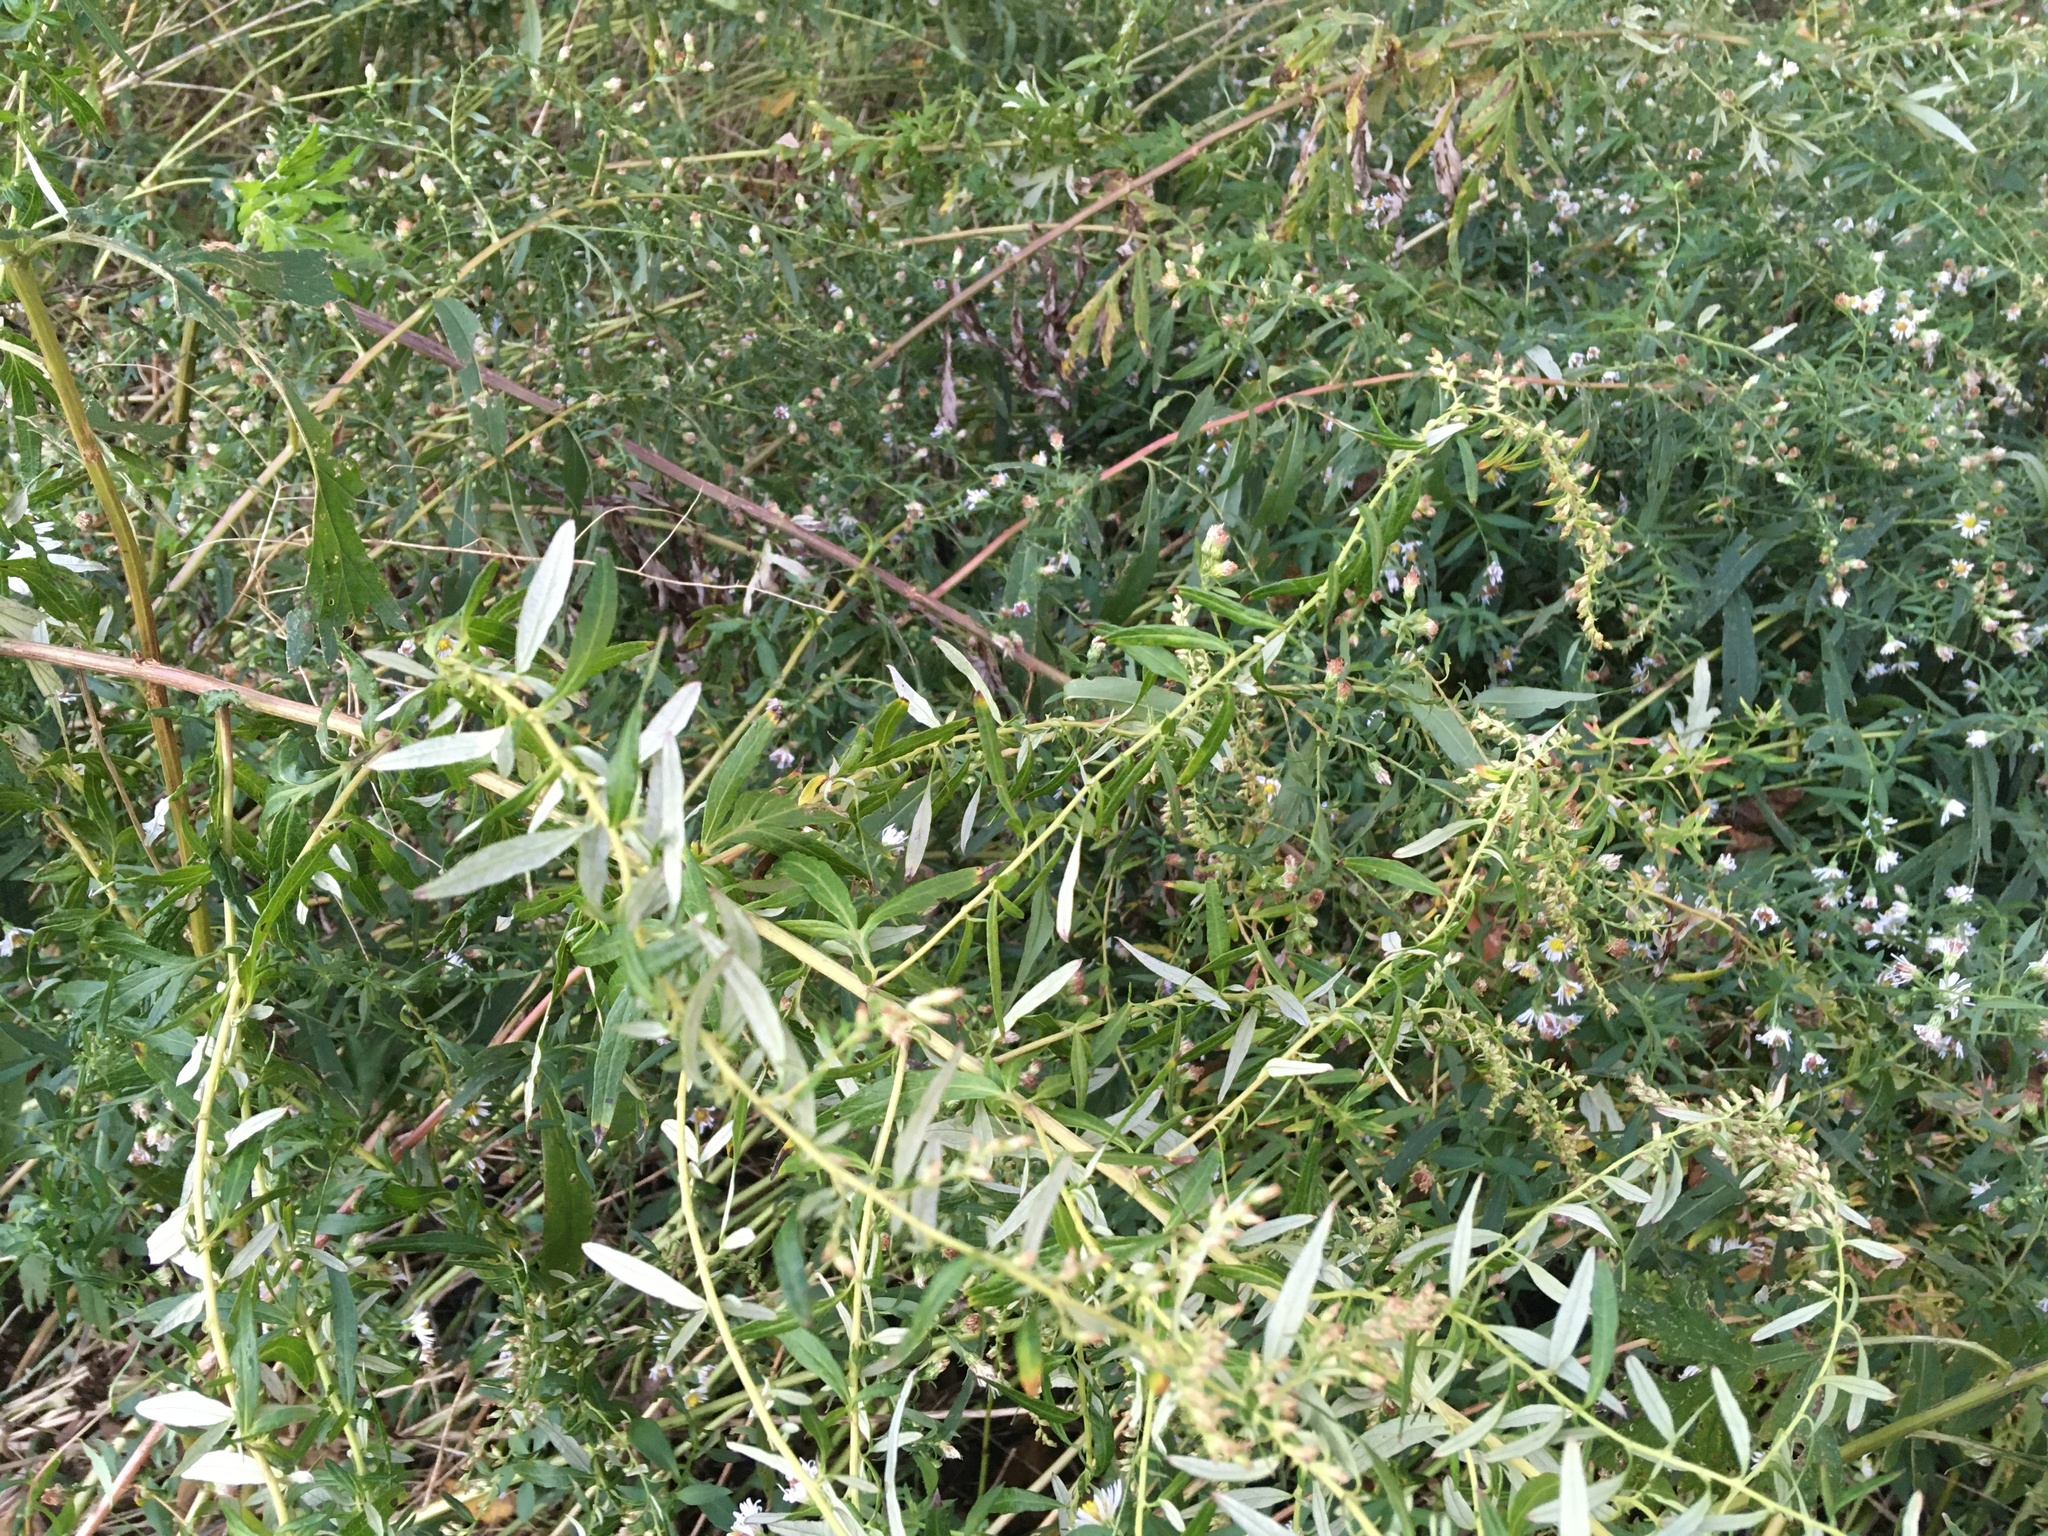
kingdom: Plantae
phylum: Tracheophyta
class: Magnoliopsida
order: Asterales
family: Asteraceae
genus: Artemisia
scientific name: Artemisia vulgaris
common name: Mugwort
